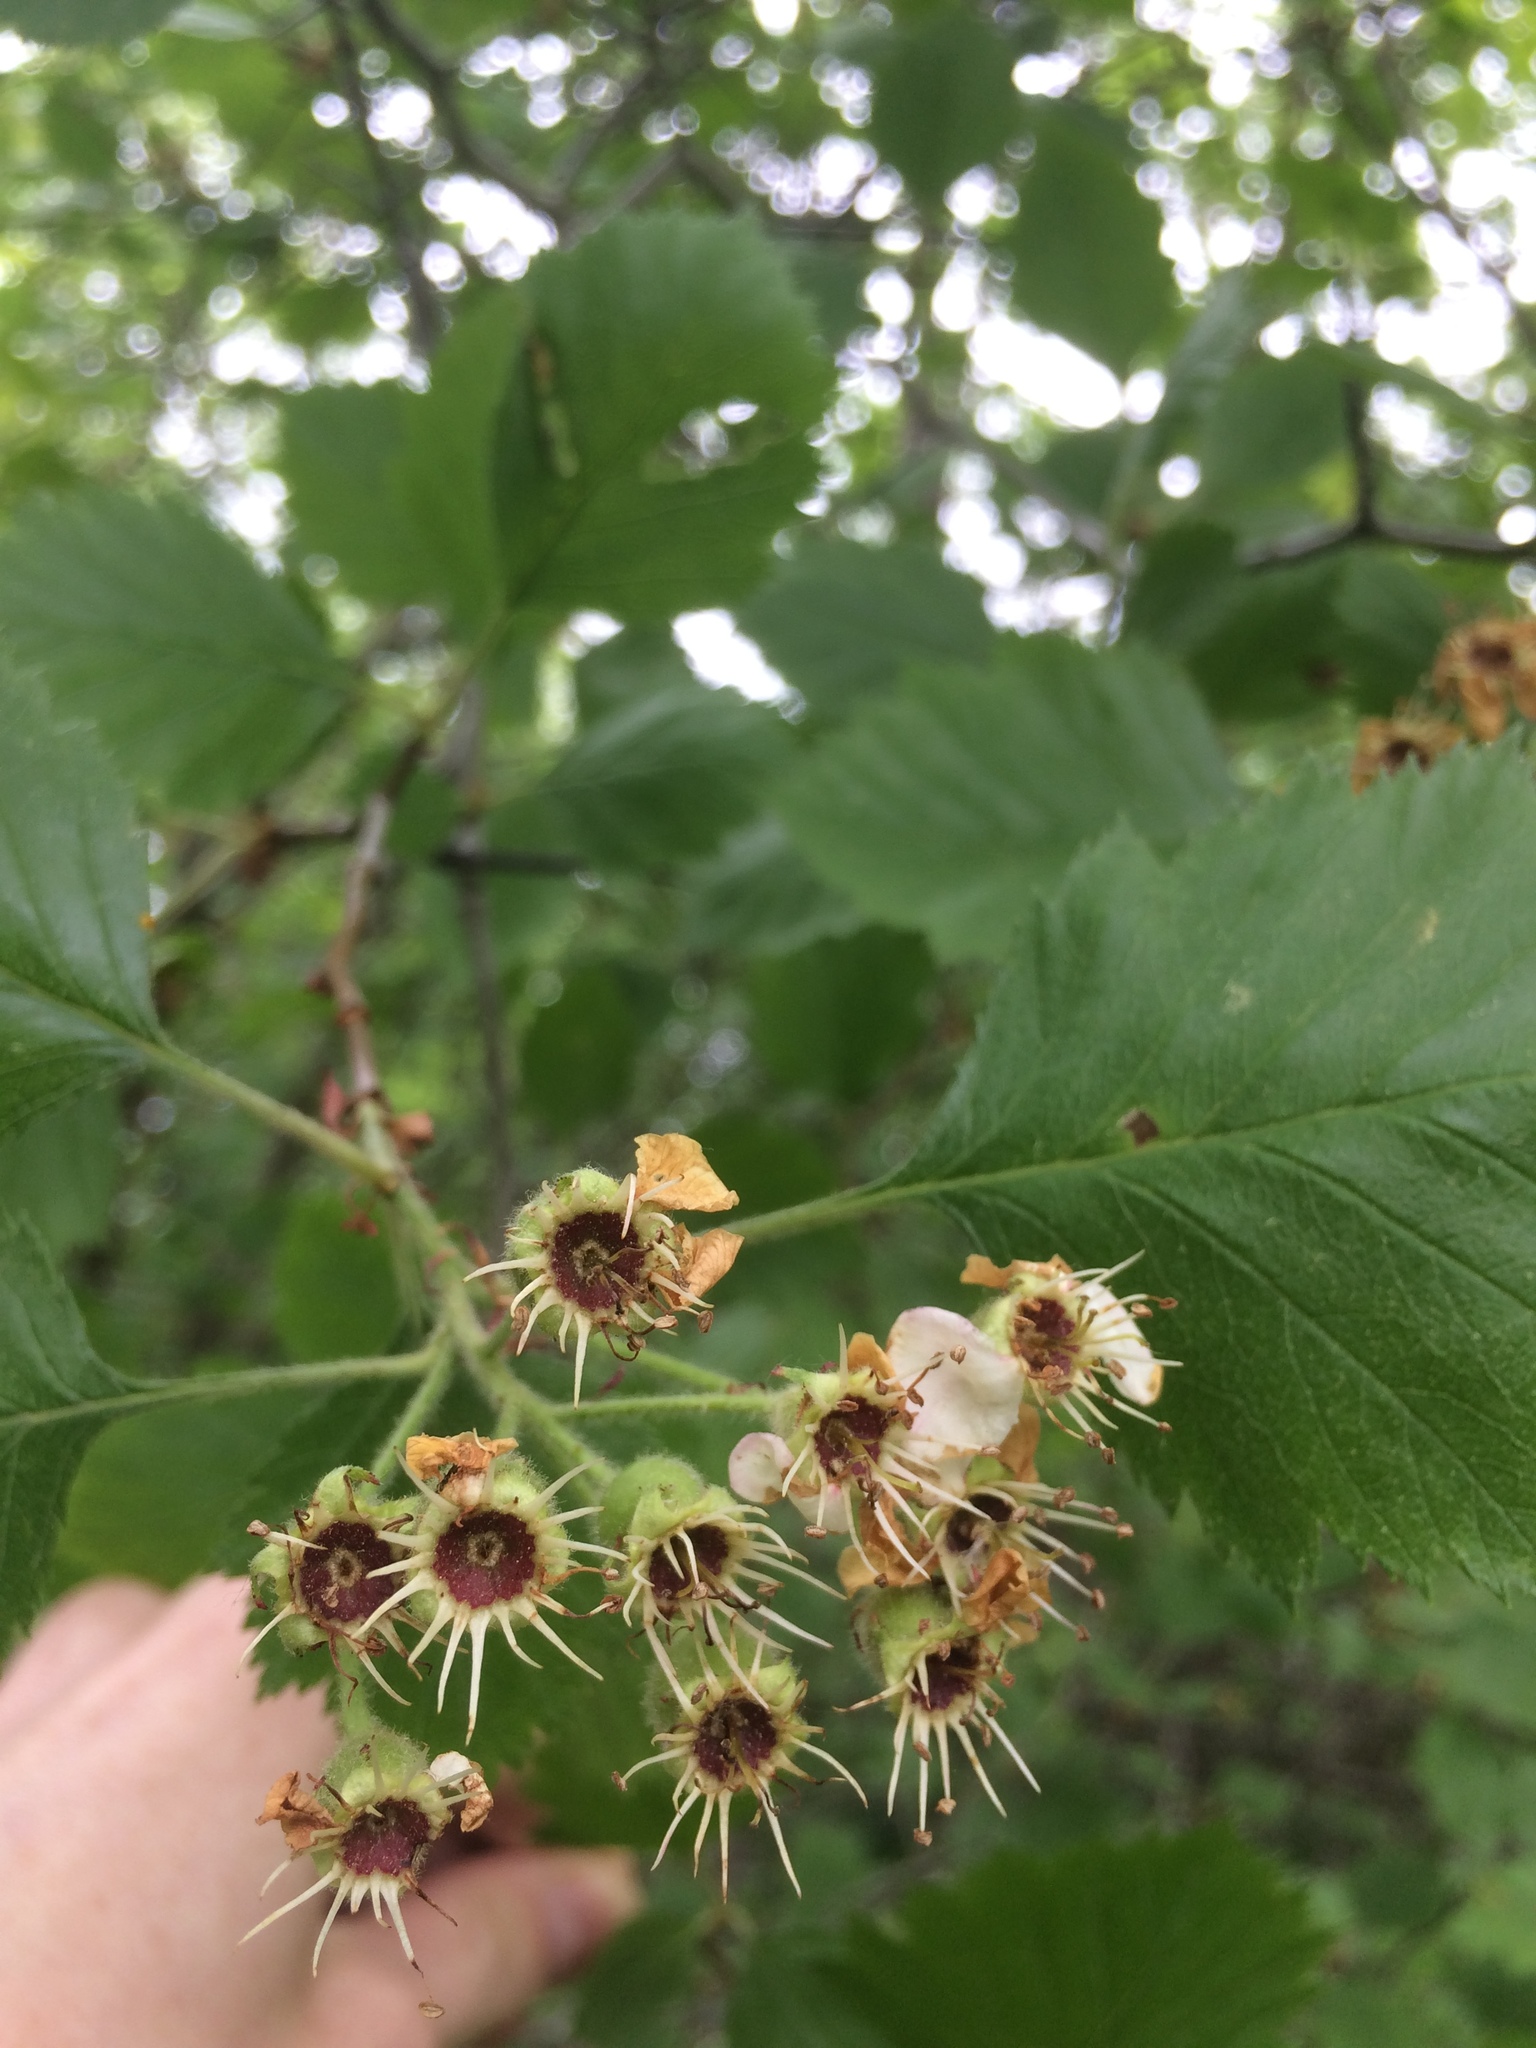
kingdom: Plantae
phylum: Tracheophyta
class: Magnoliopsida
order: Rosales
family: Rosaceae
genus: Crataegus
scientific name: Crataegus submollis
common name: Hairy cockspurthorn
